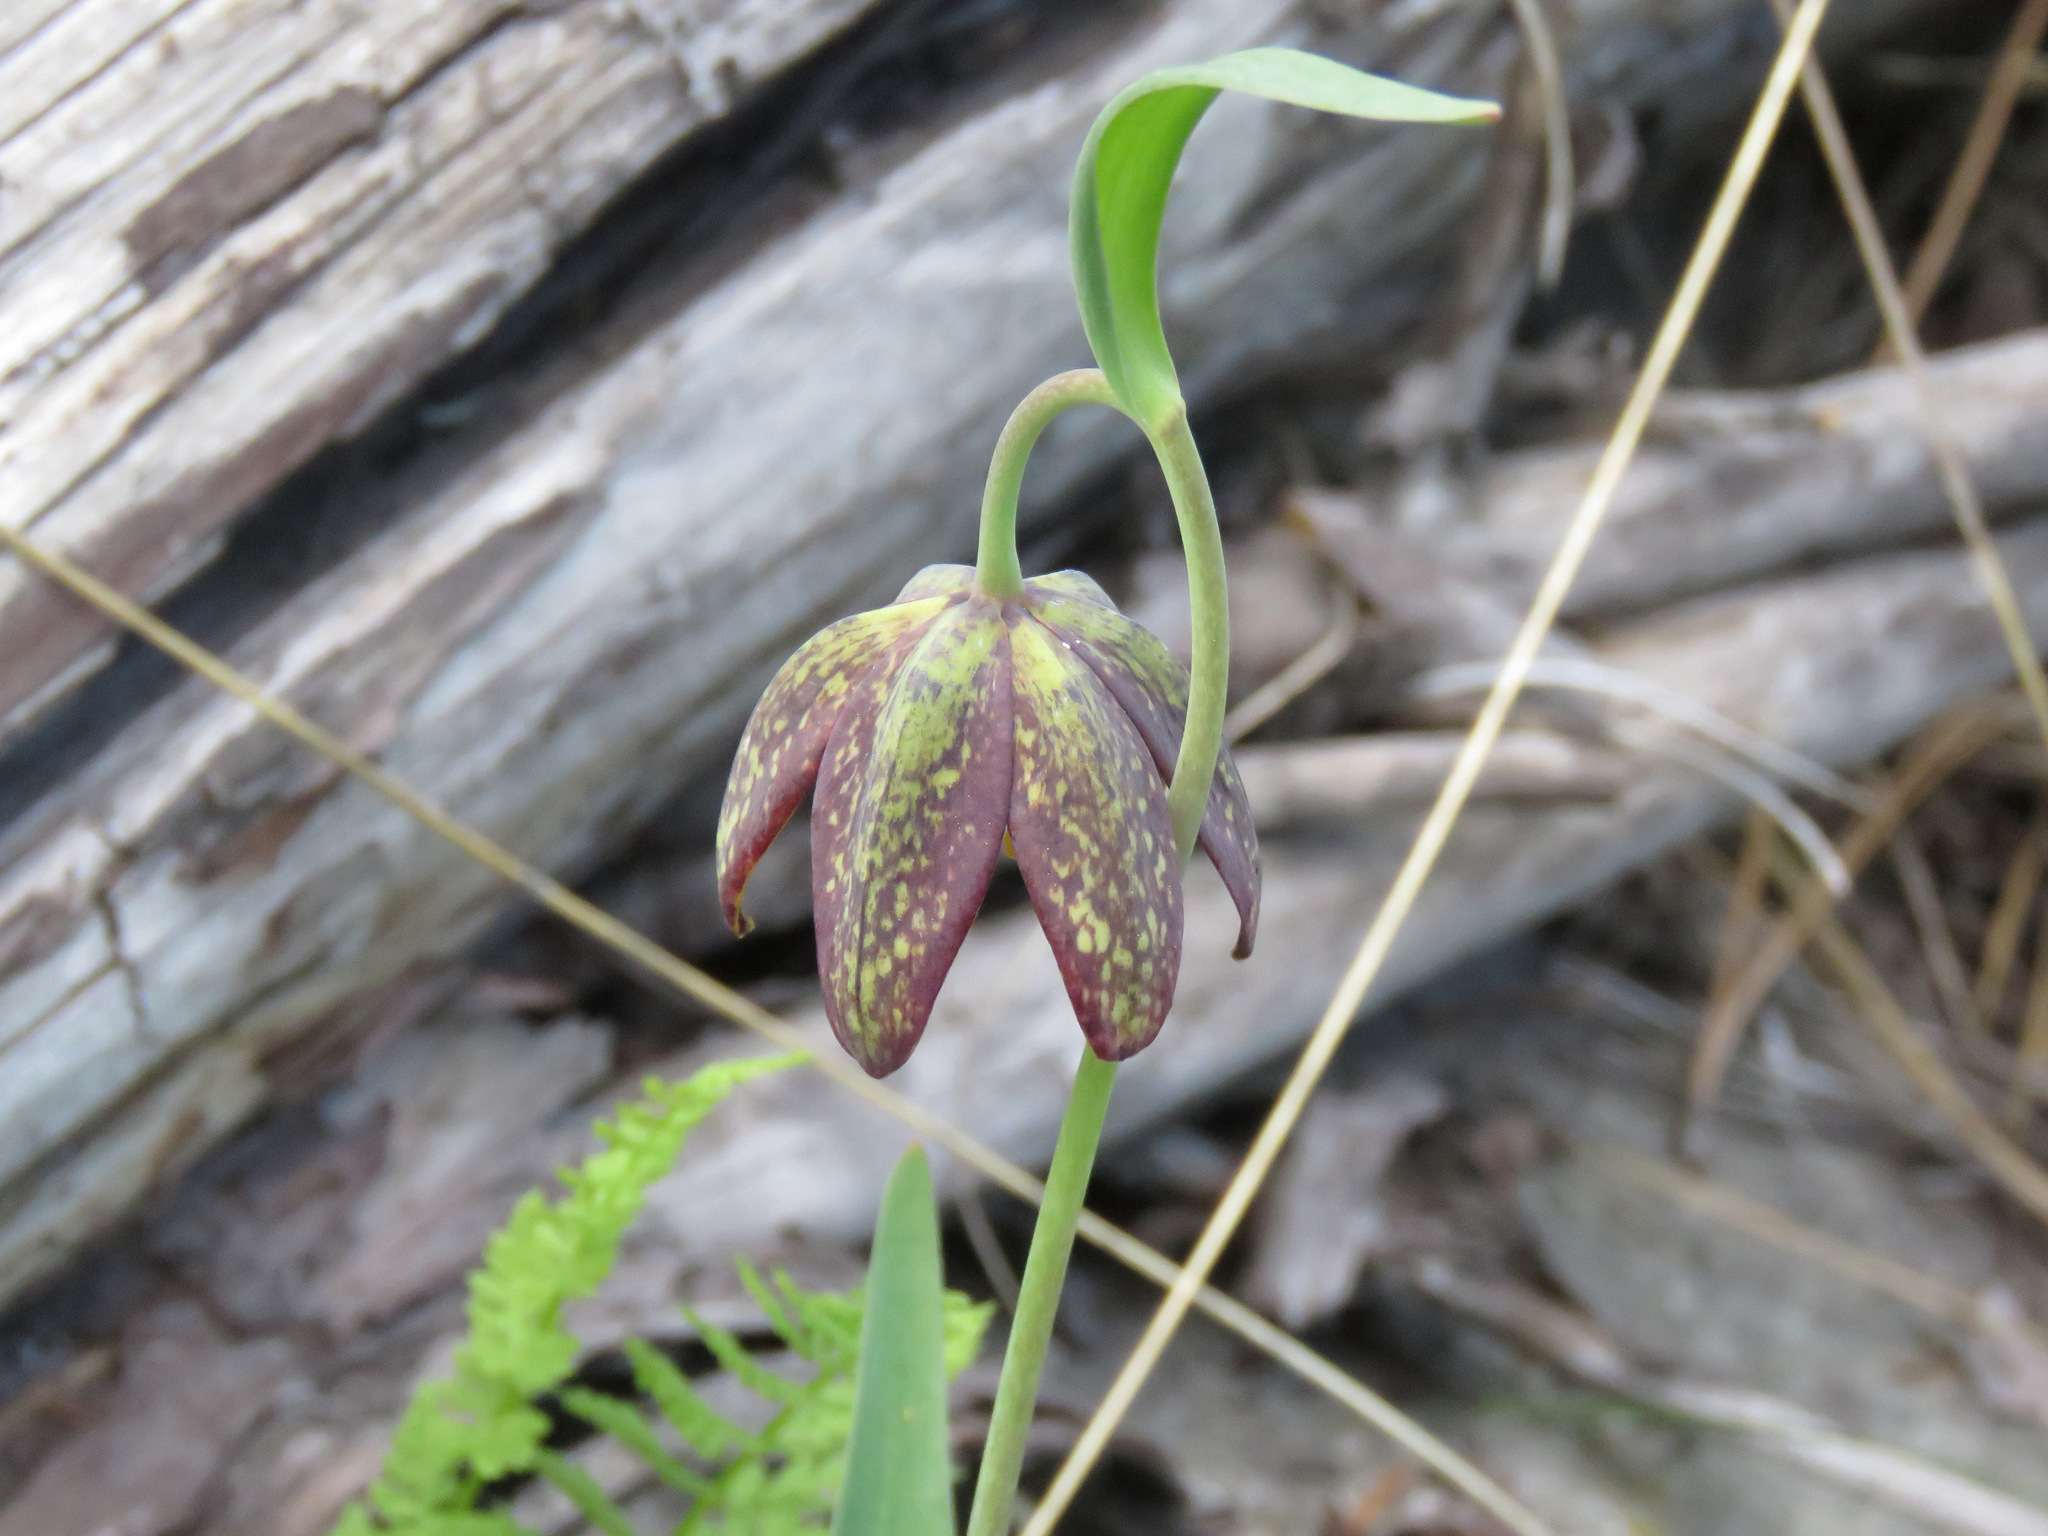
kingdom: Plantae
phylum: Tracheophyta
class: Liliopsida
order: Liliales
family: Liliaceae
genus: Fritillaria
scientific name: Fritillaria affinis
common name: Ojai fritillary
